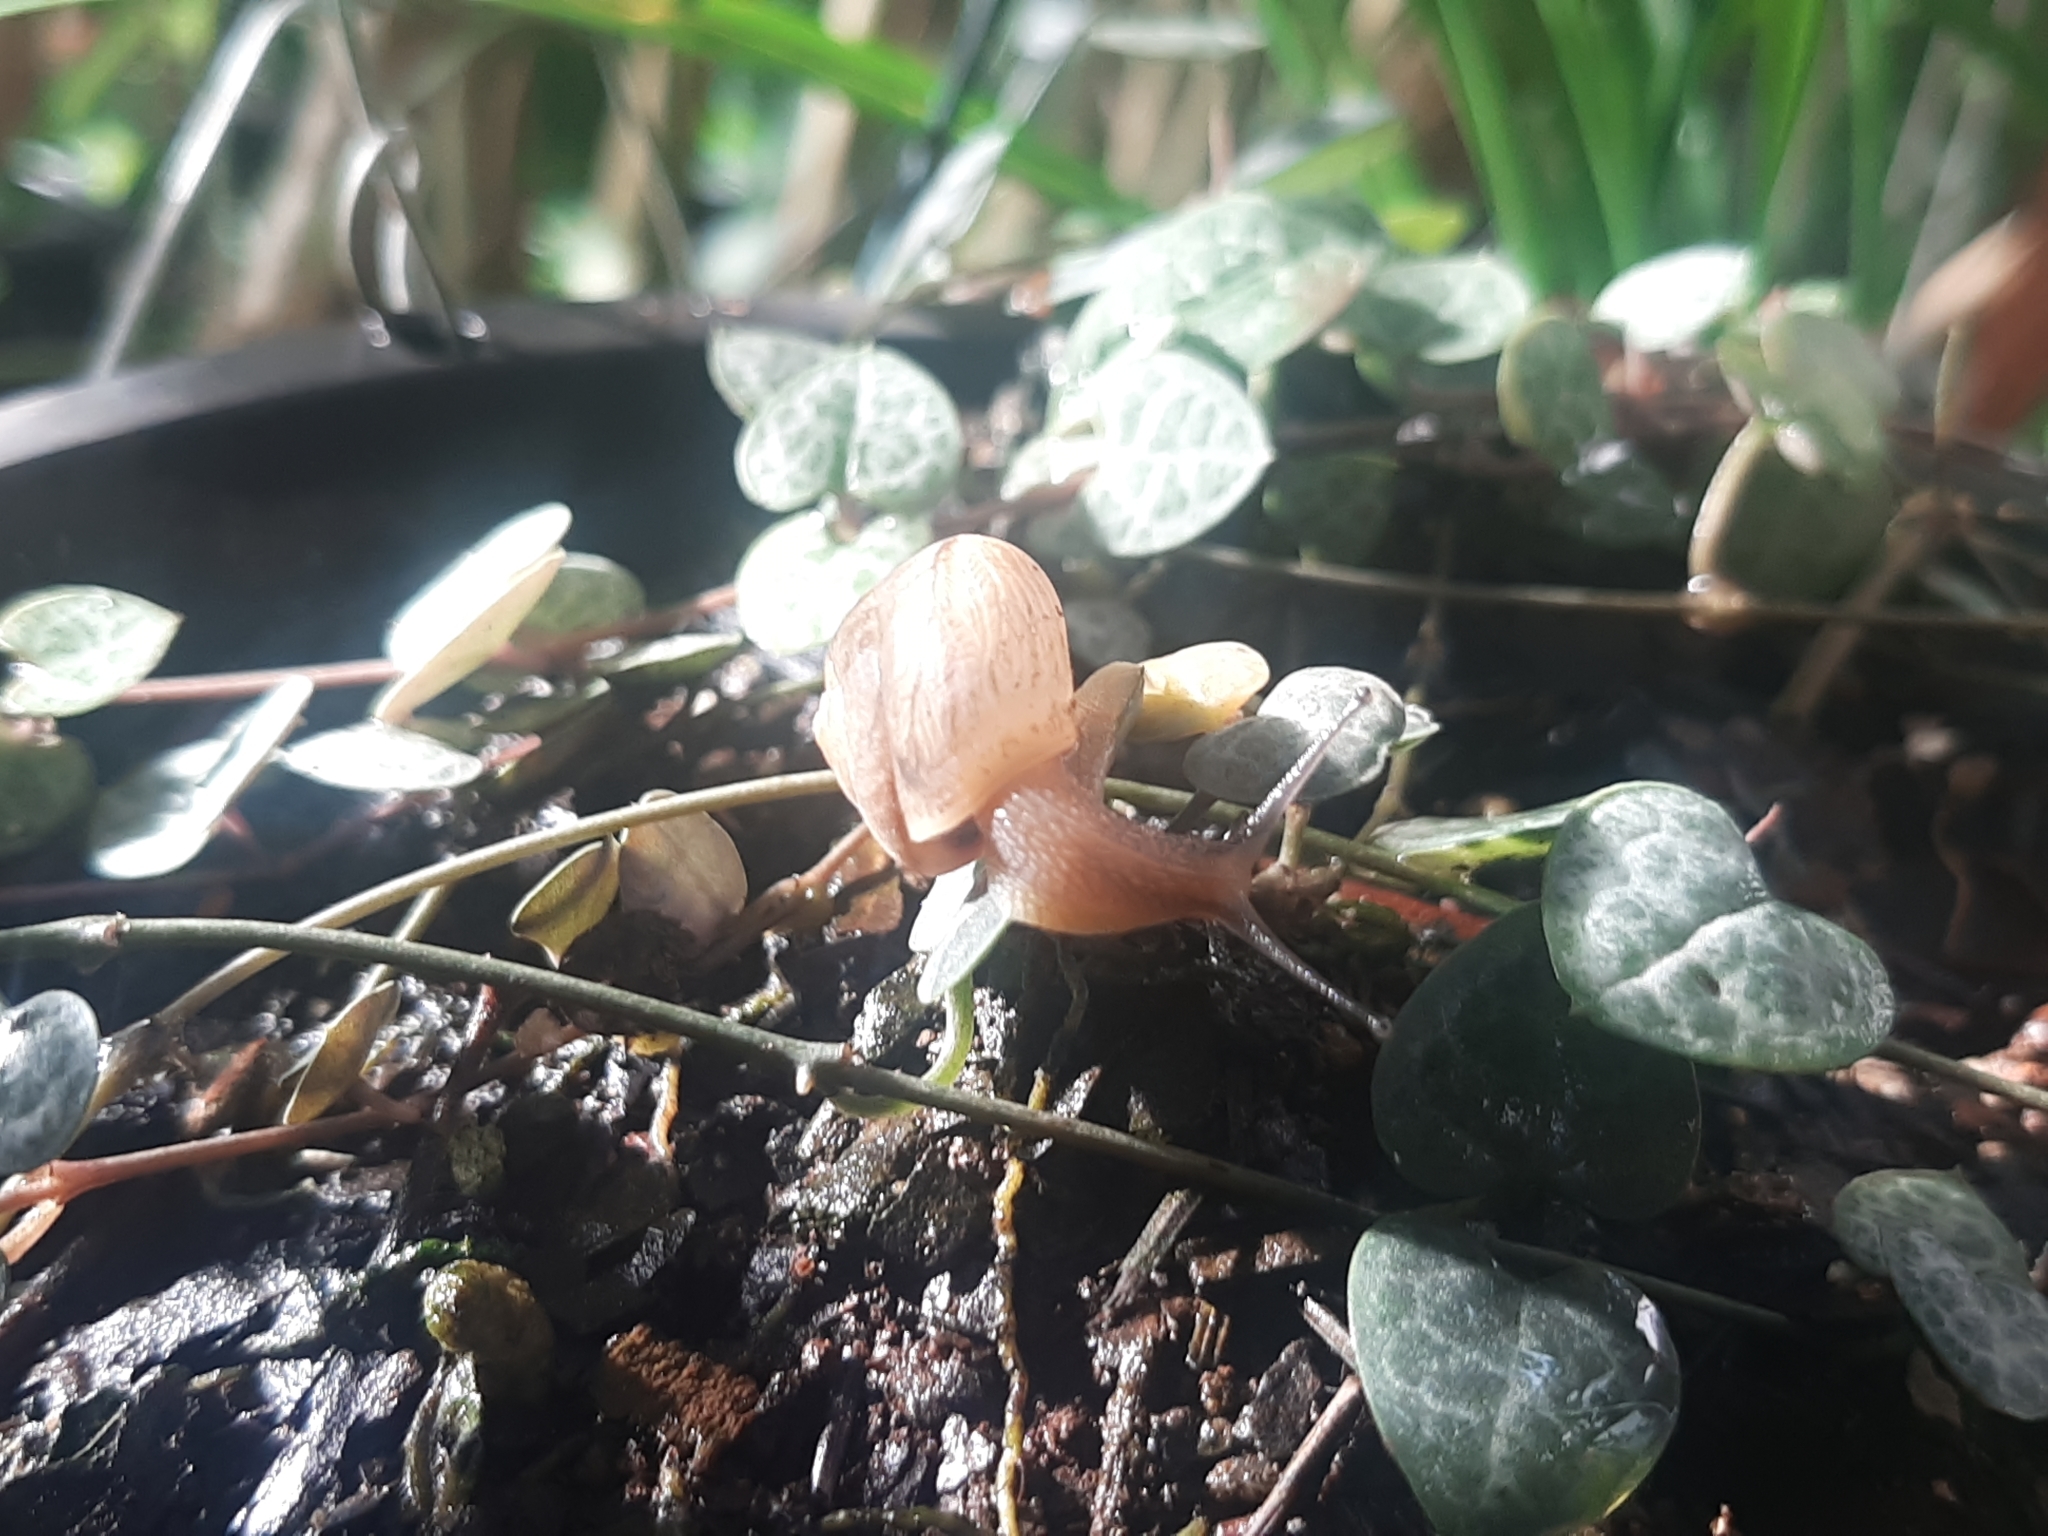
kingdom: Animalia
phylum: Mollusca
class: Gastropoda
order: Stylommatophora
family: Camaenidae
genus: Bradybaena
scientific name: Bradybaena similaris
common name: Asian trampsnail
